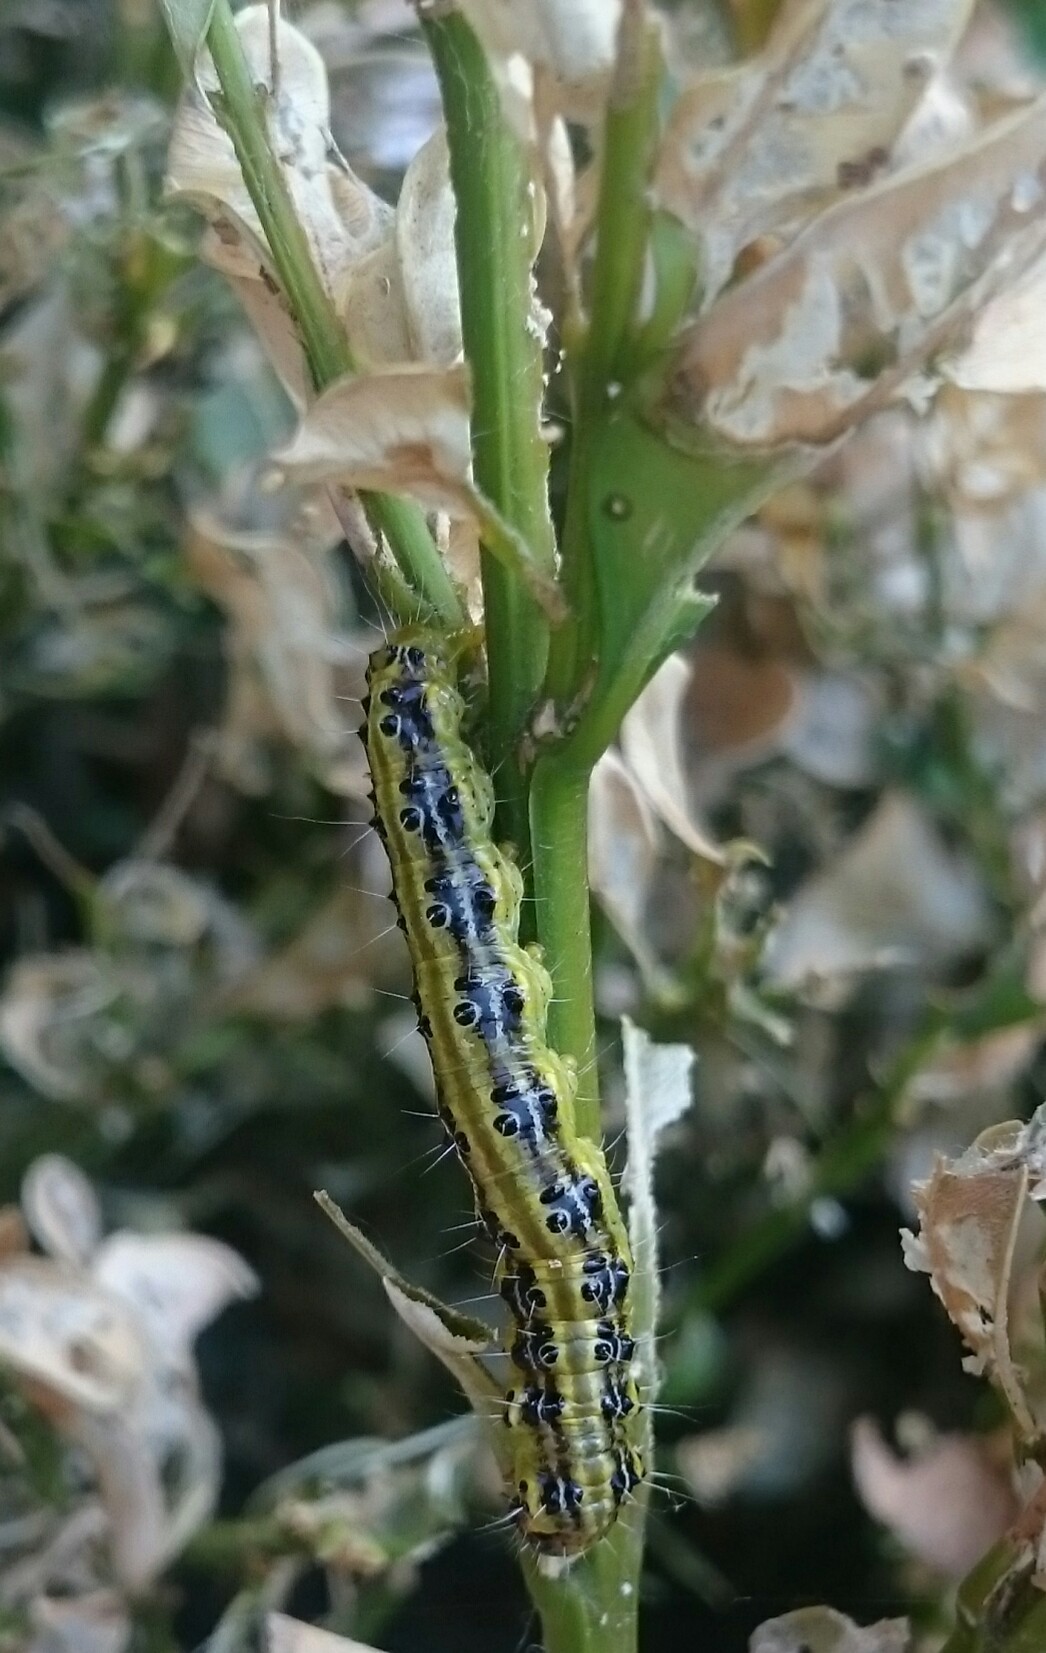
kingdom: Animalia
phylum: Arthropoda
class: Insecta
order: Lepidoptera
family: Crambidae
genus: Cydalima
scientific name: Cydalima perspectalis
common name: Box tree moth
